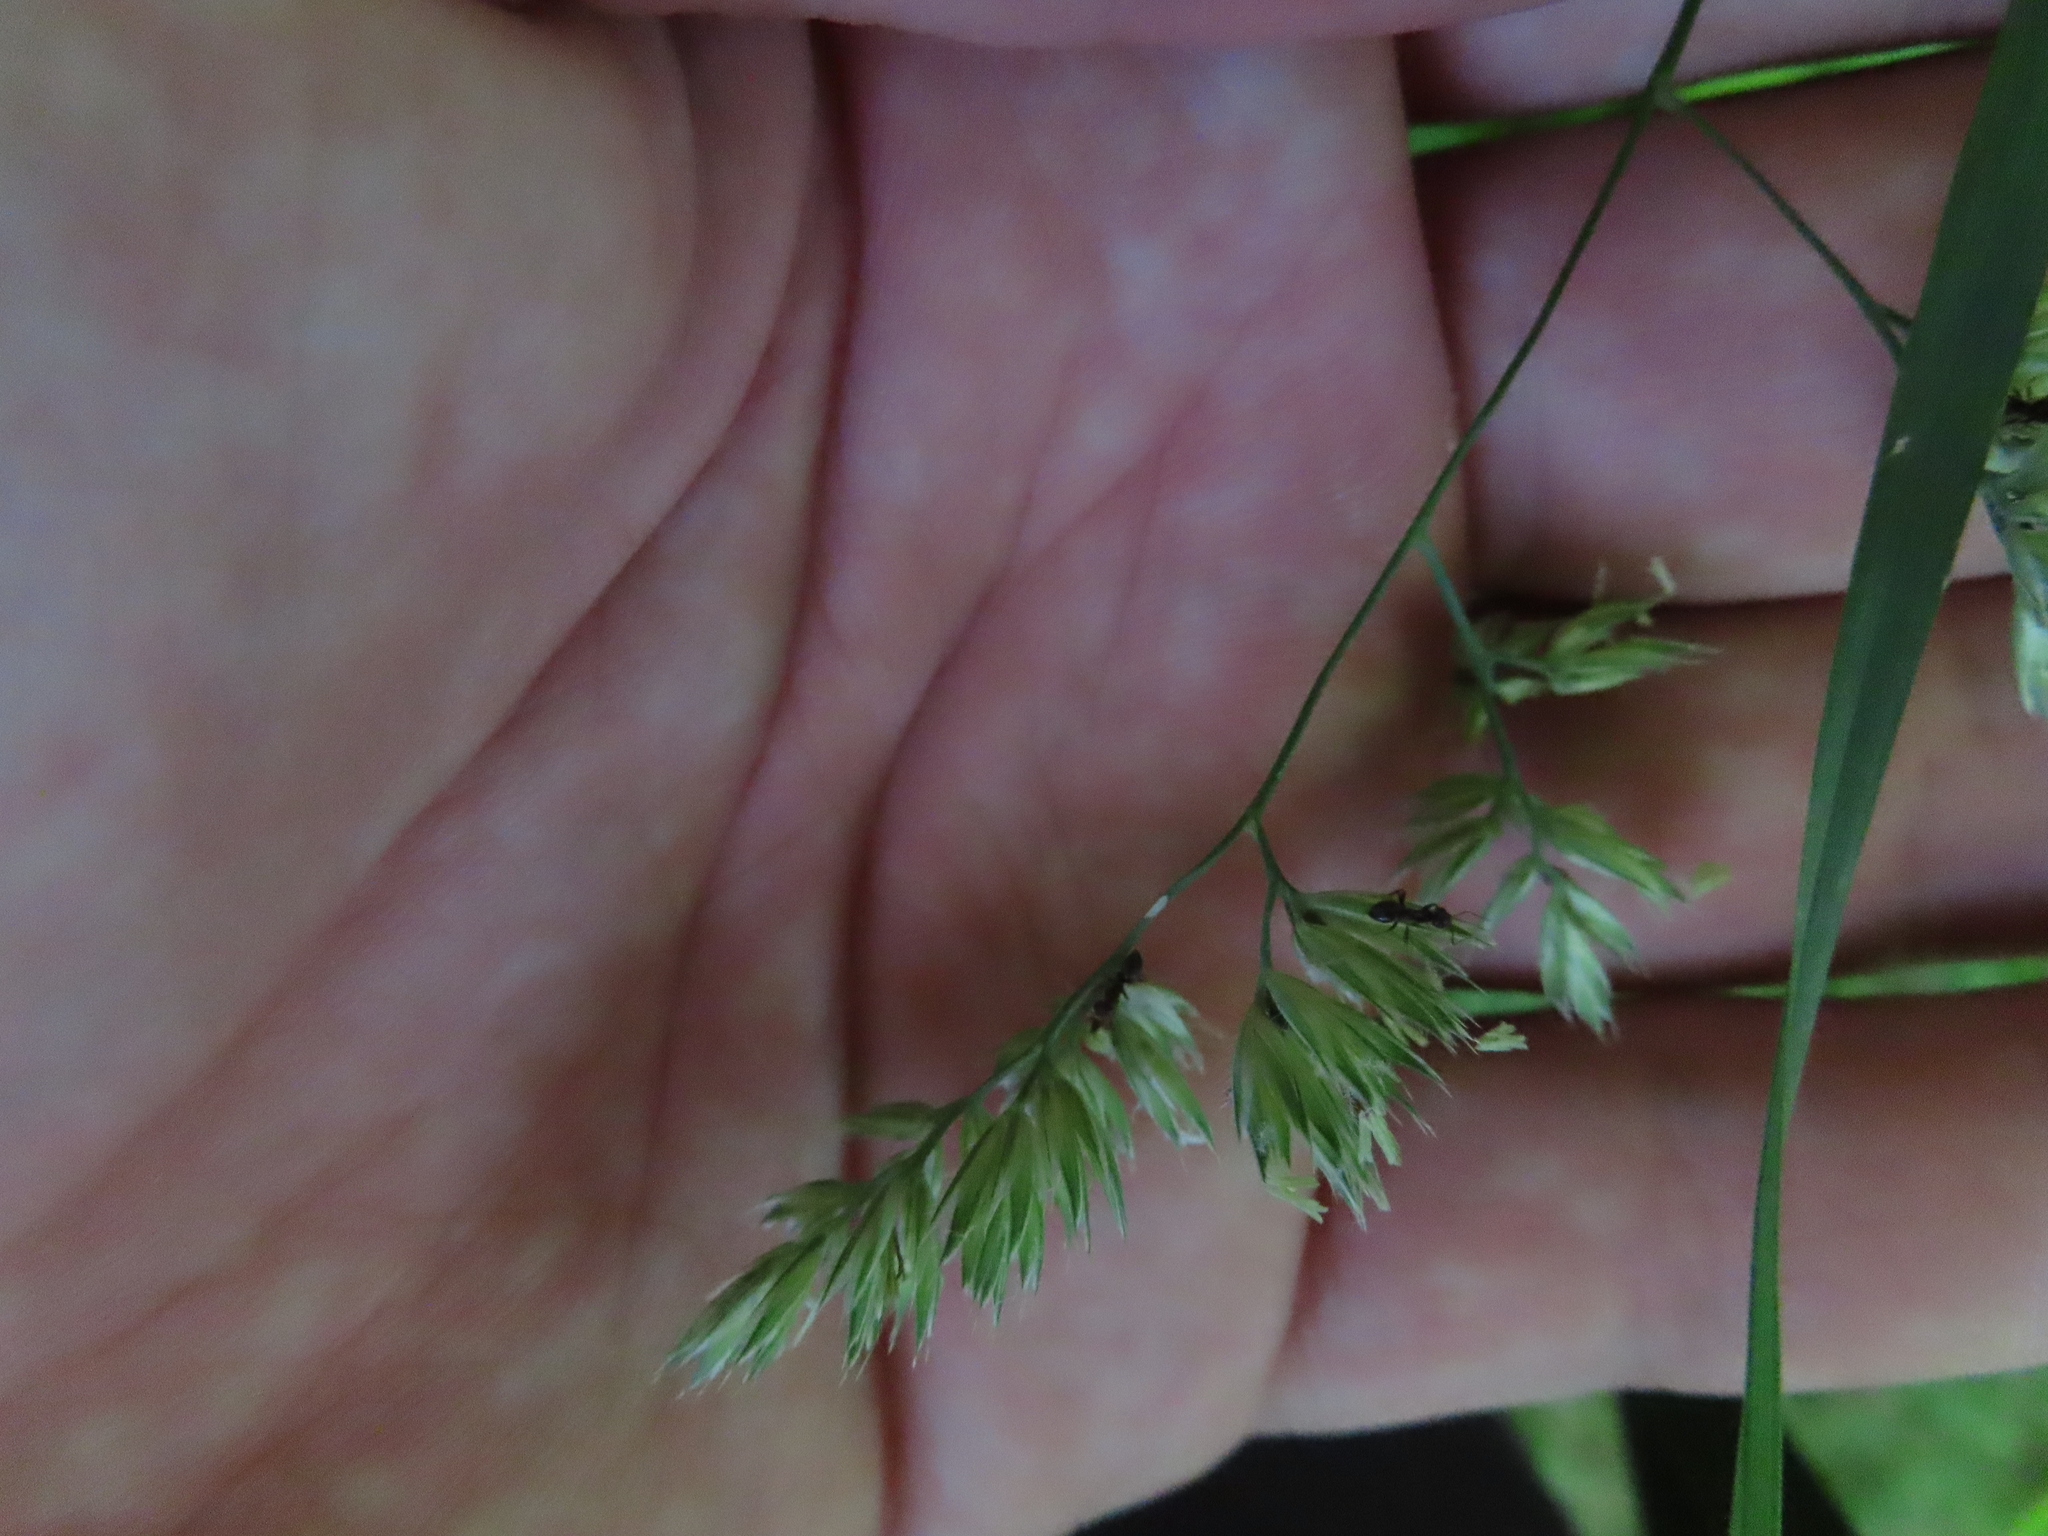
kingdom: Plantae
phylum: Tracheophyta
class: Liliopsida
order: Poales
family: Poaceae
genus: Dactylis
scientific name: Dactylis glomerata
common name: Orchardgrass
